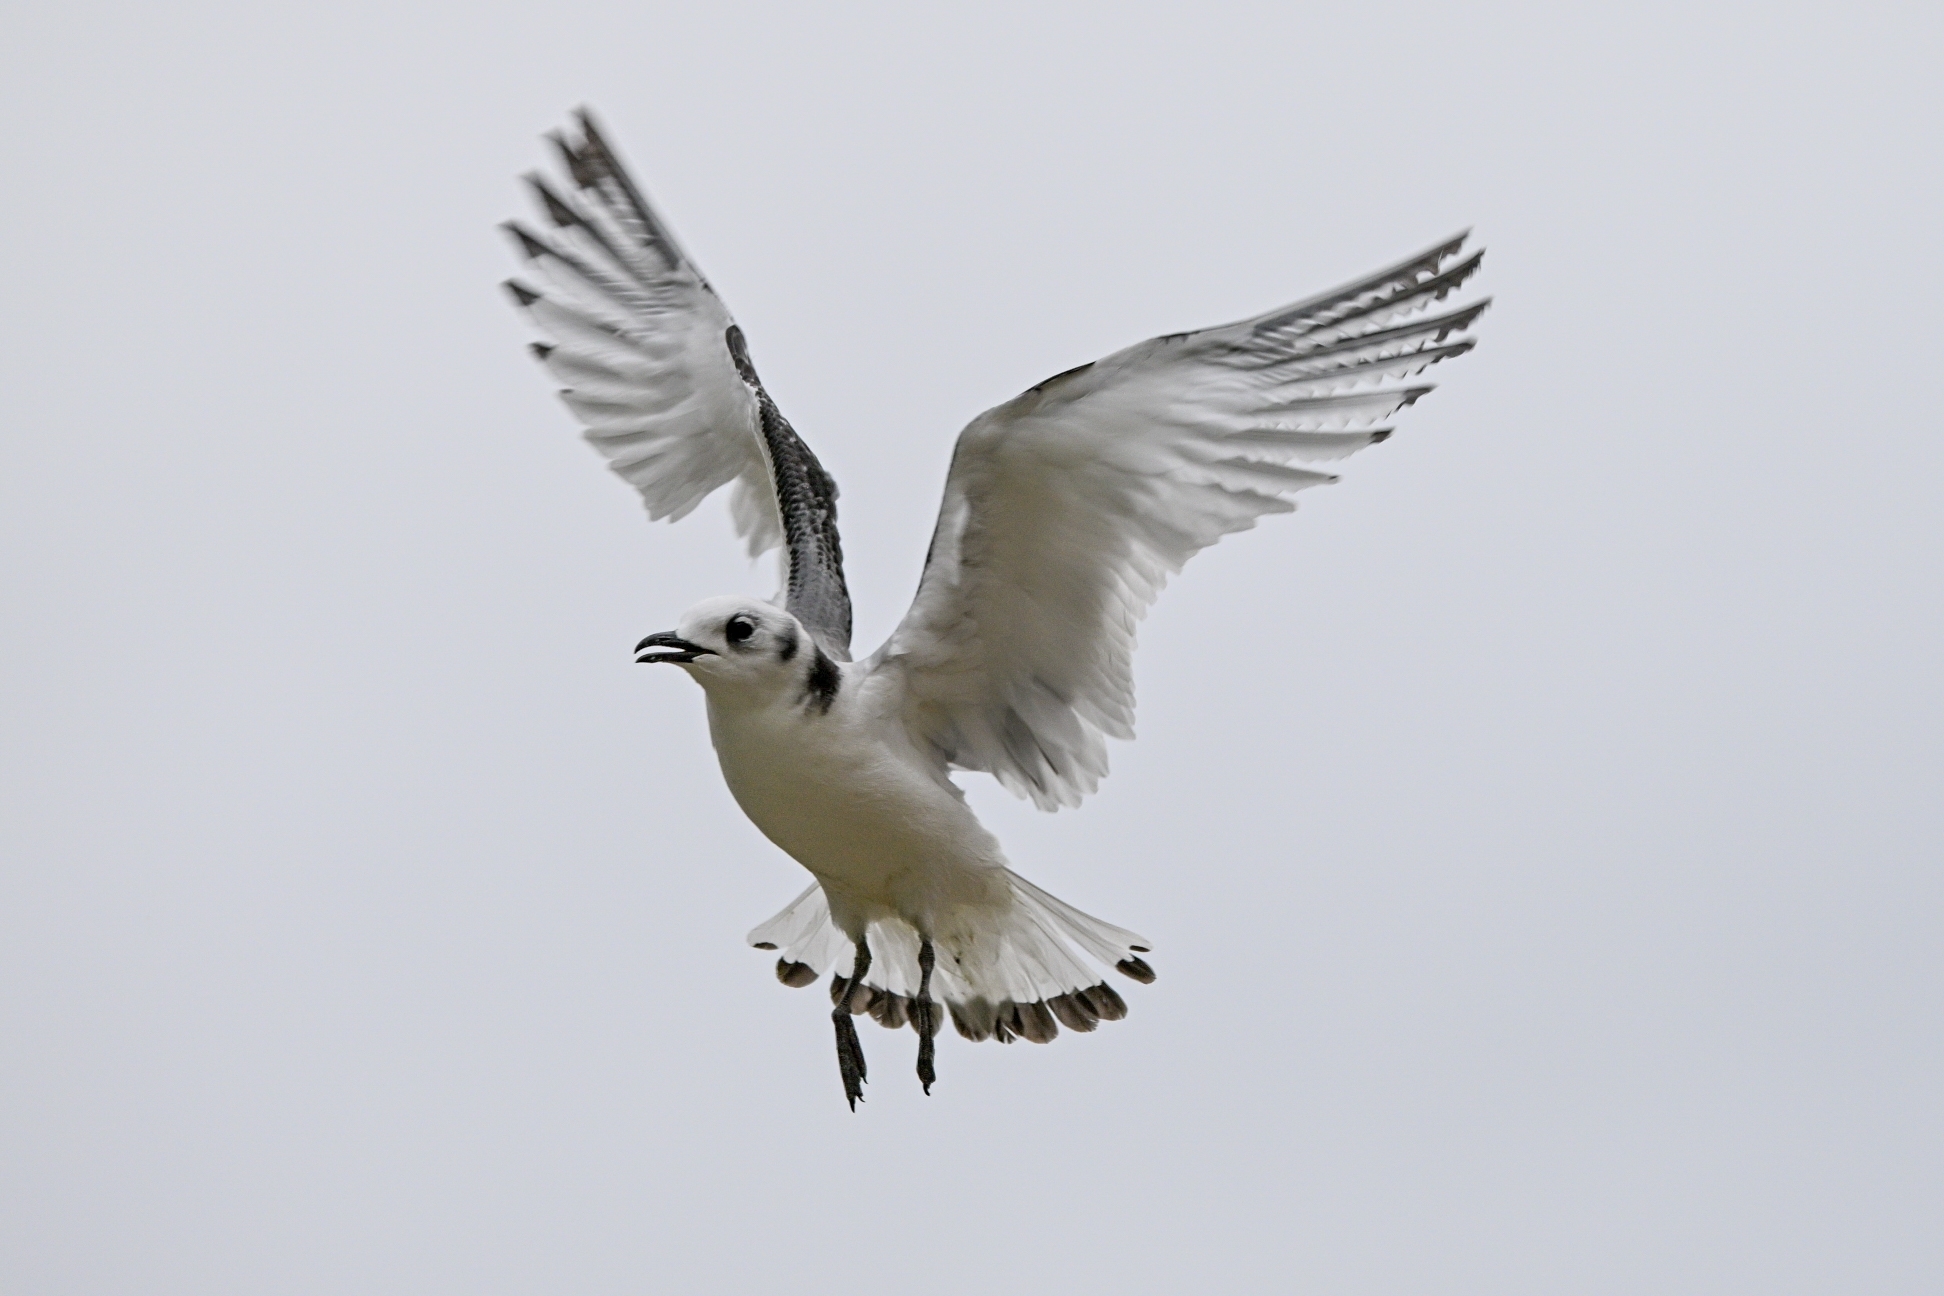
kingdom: Animalia
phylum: Chordata
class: Aves
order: Charadriiformes
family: Laridae
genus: Rissa
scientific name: Rissa tridactyla
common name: Black-legged kittiwake
